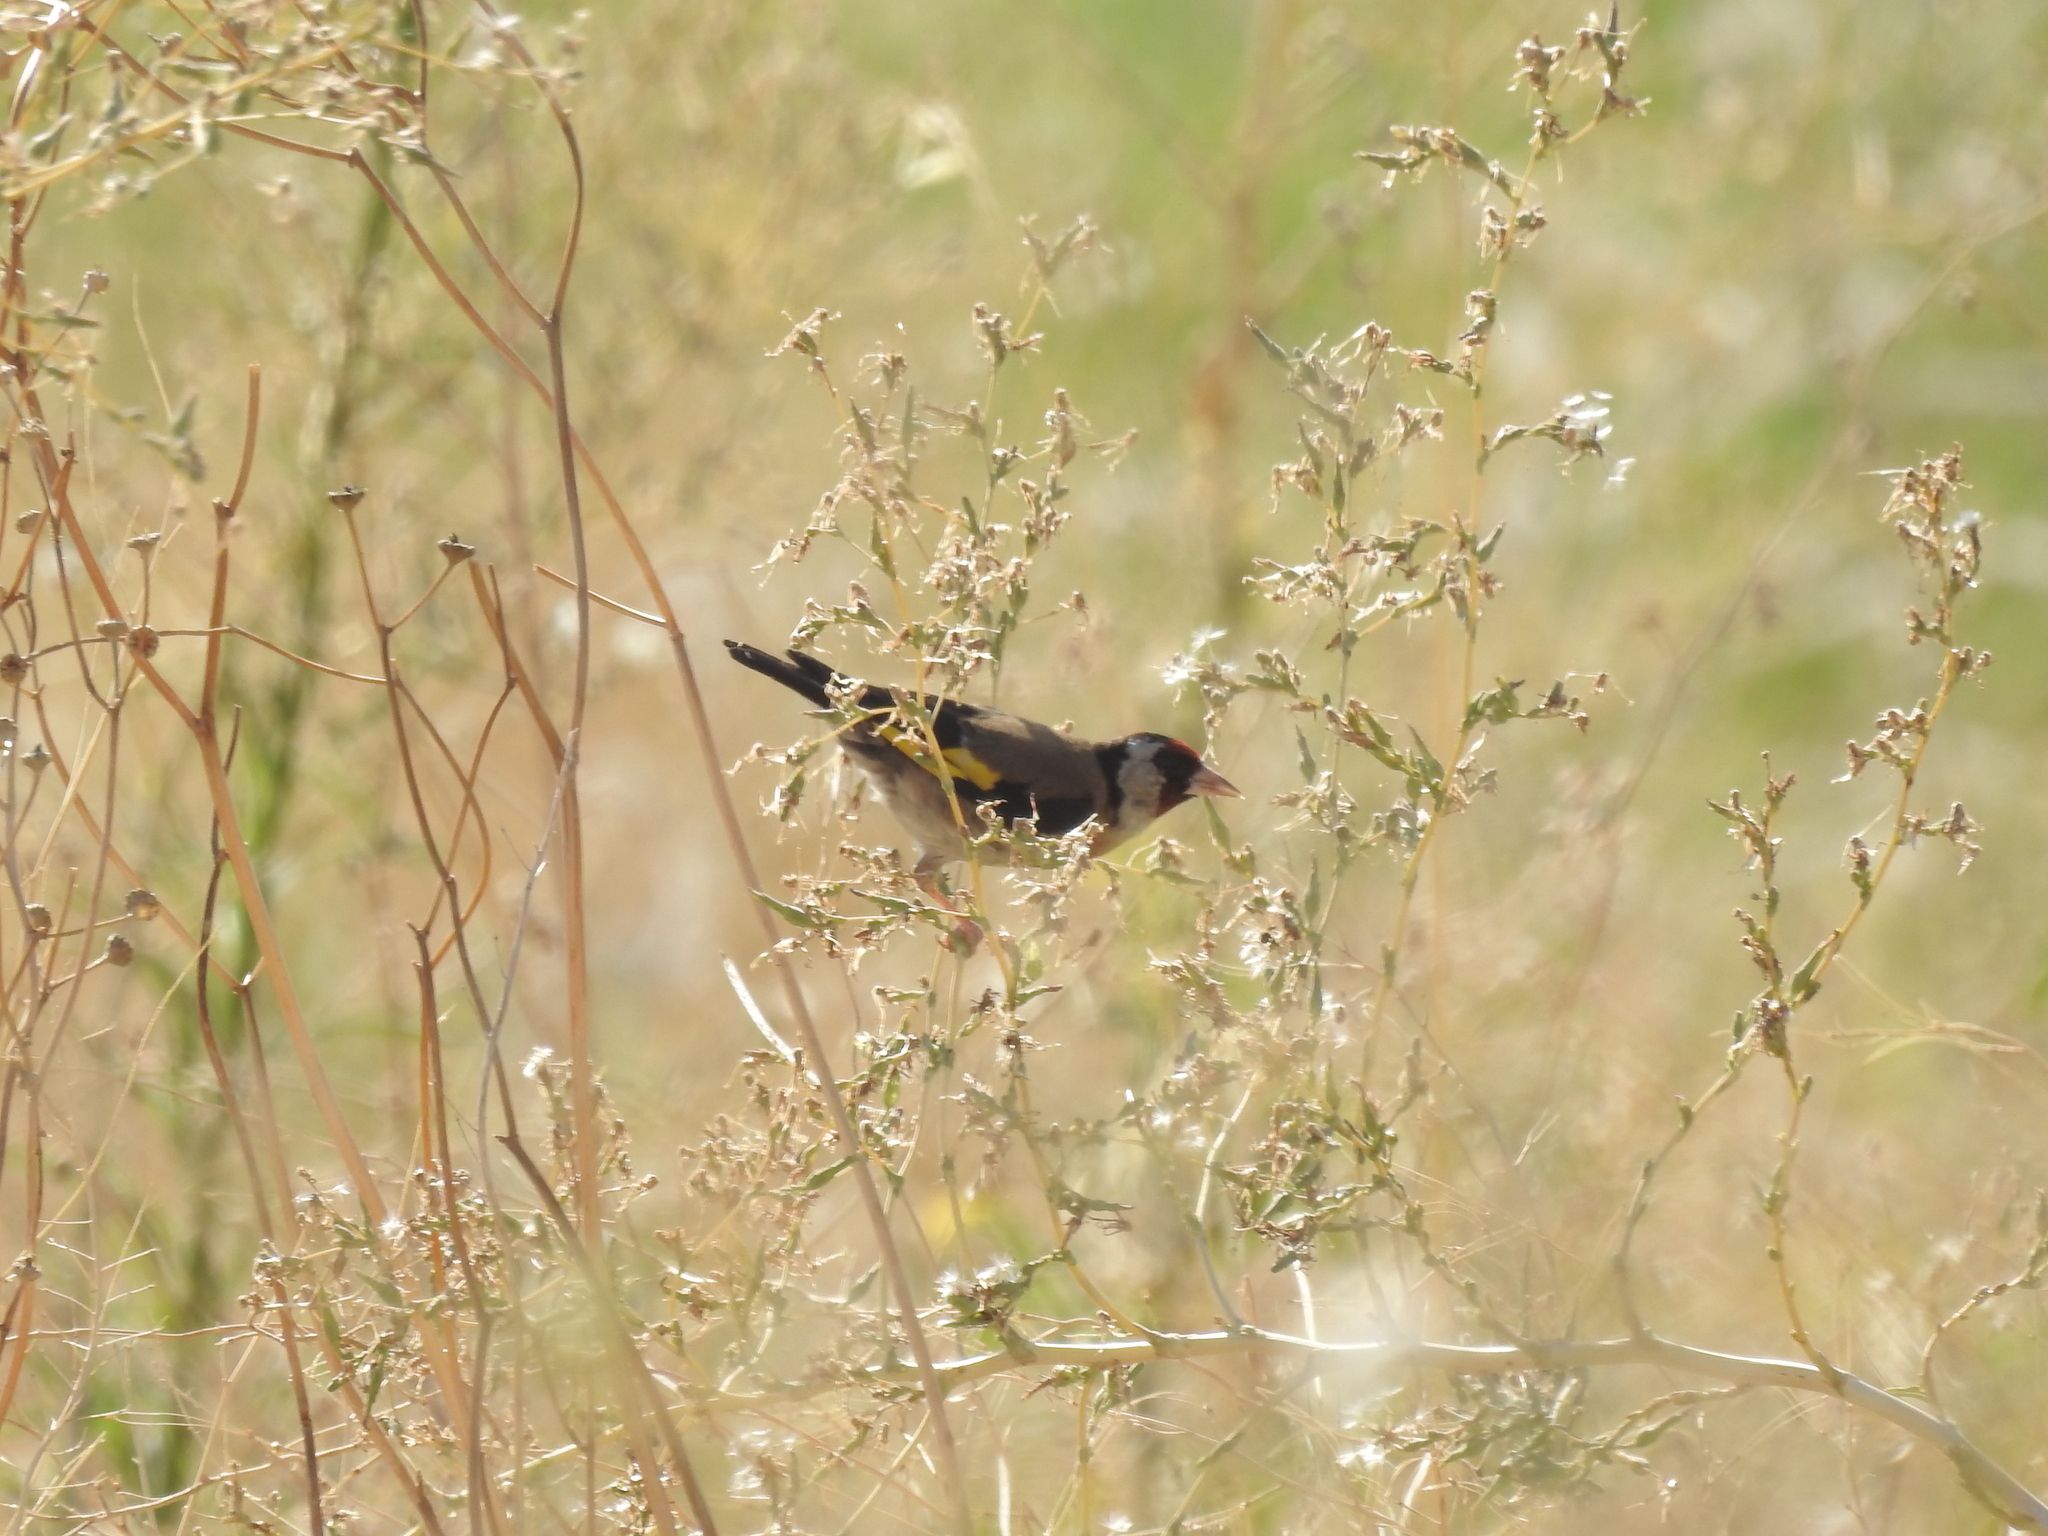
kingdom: Animalia
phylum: Chordata
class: Aves
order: Passeriformes
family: Fringillidae
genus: Carduelis
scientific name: Carduelis carduelis
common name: European goldfinch
